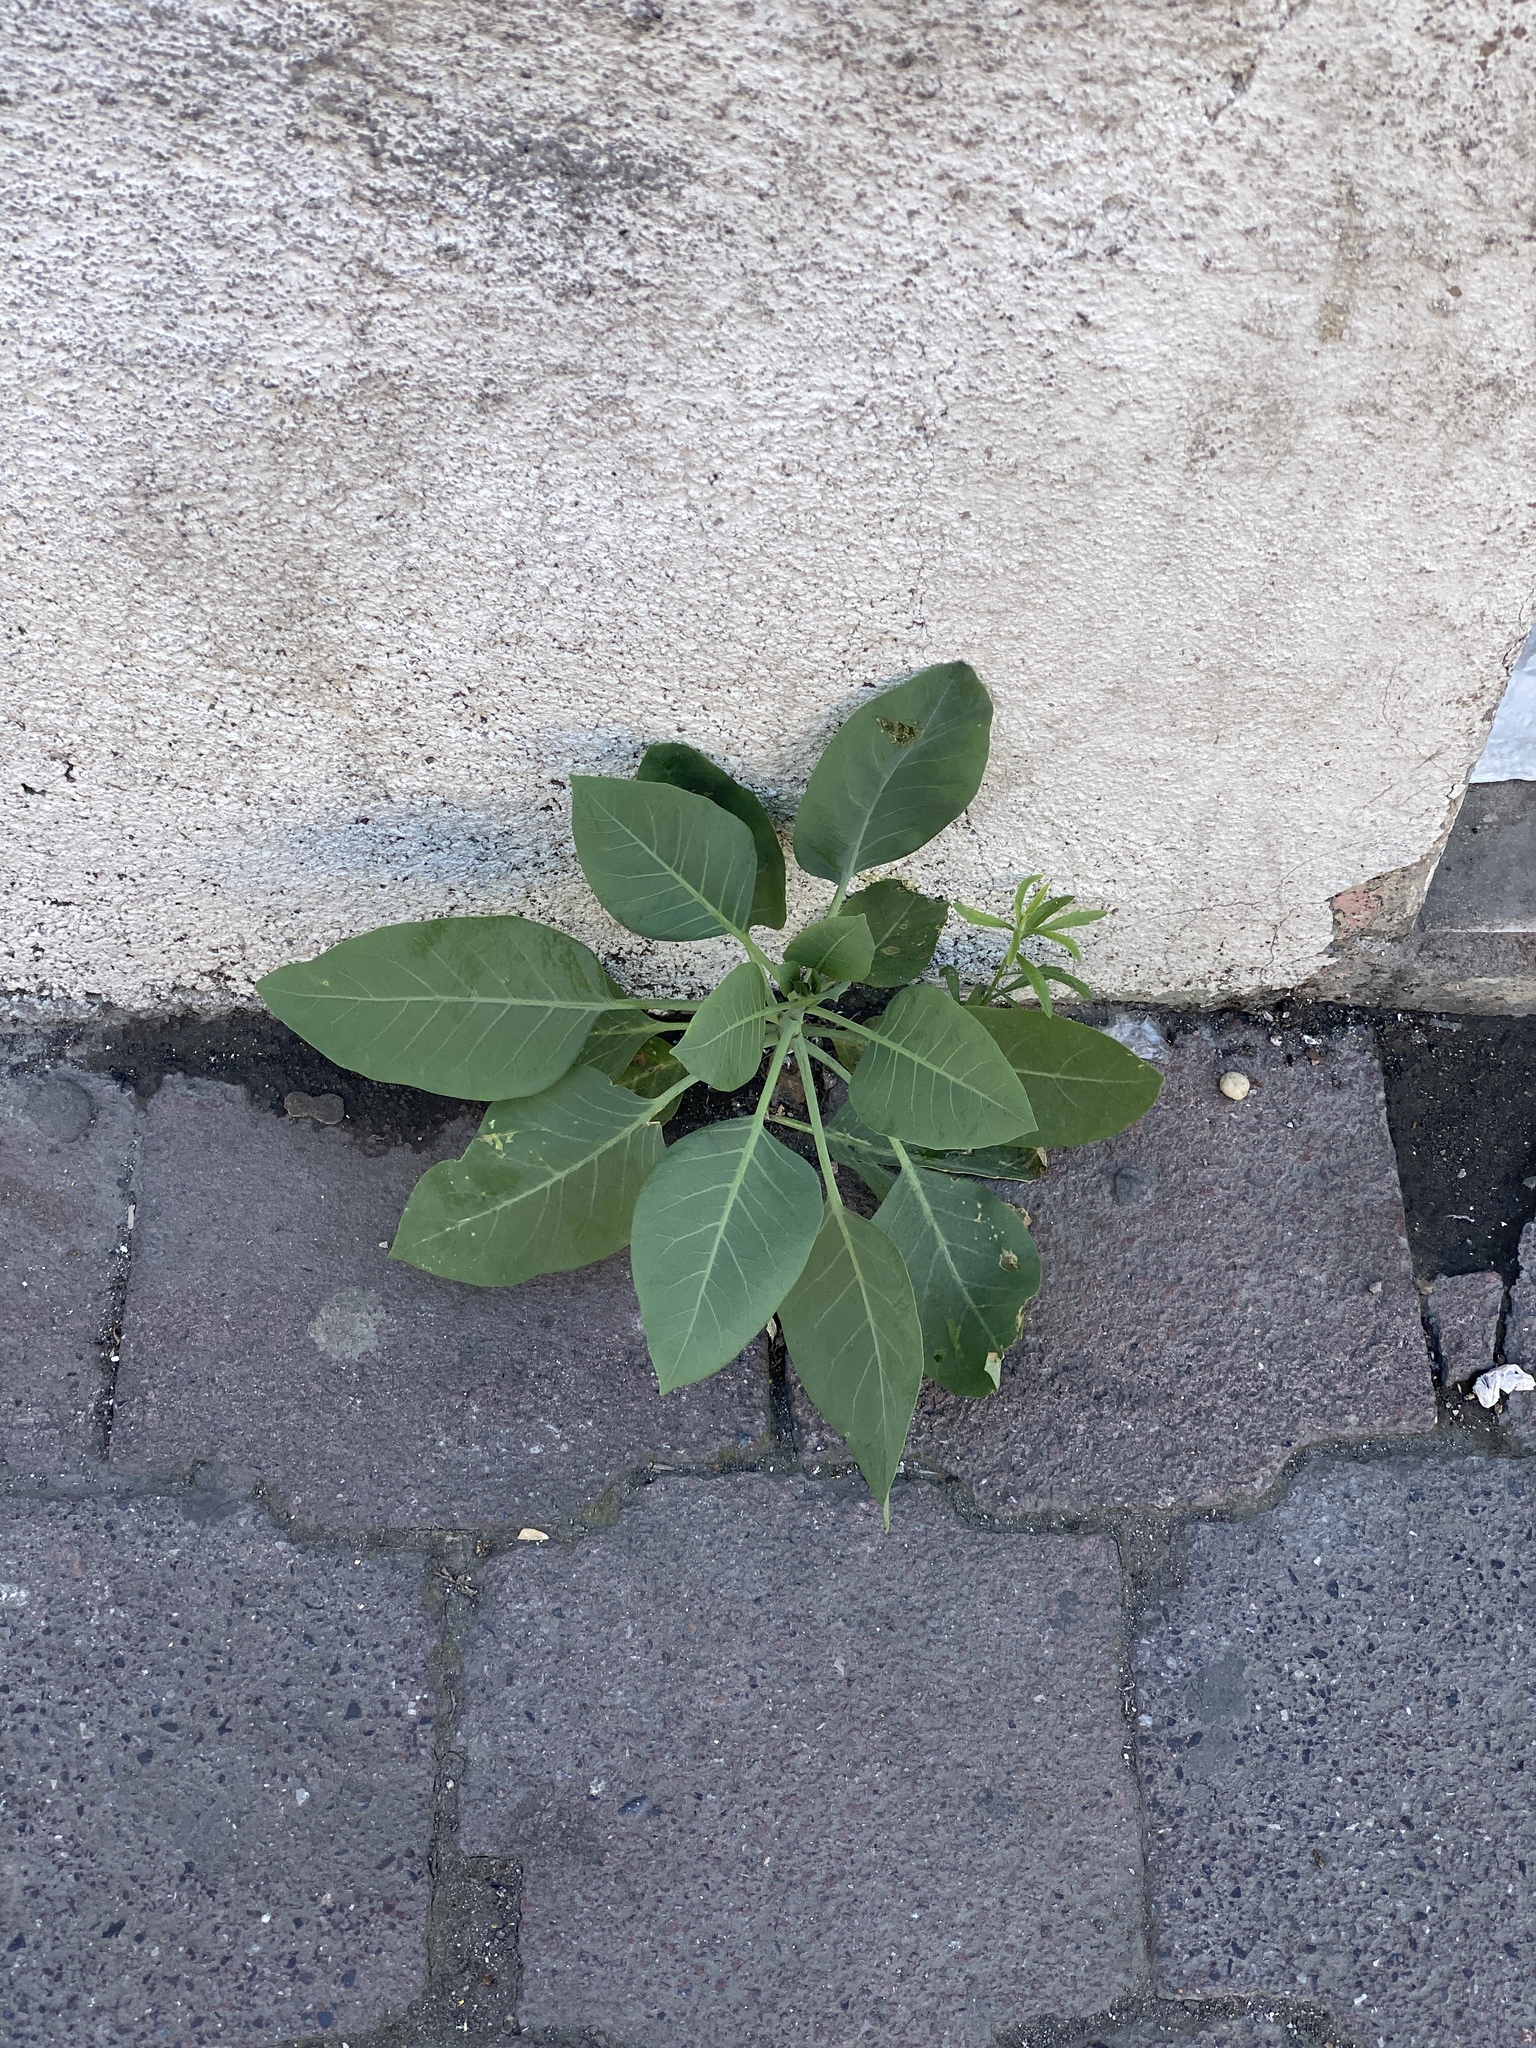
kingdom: Plantae
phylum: Tracheophyta
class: Magnoliopsida
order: Solanales
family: Solanaceae
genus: Nicotiana
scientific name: Nicotiana glauca
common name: Tree tobacco
